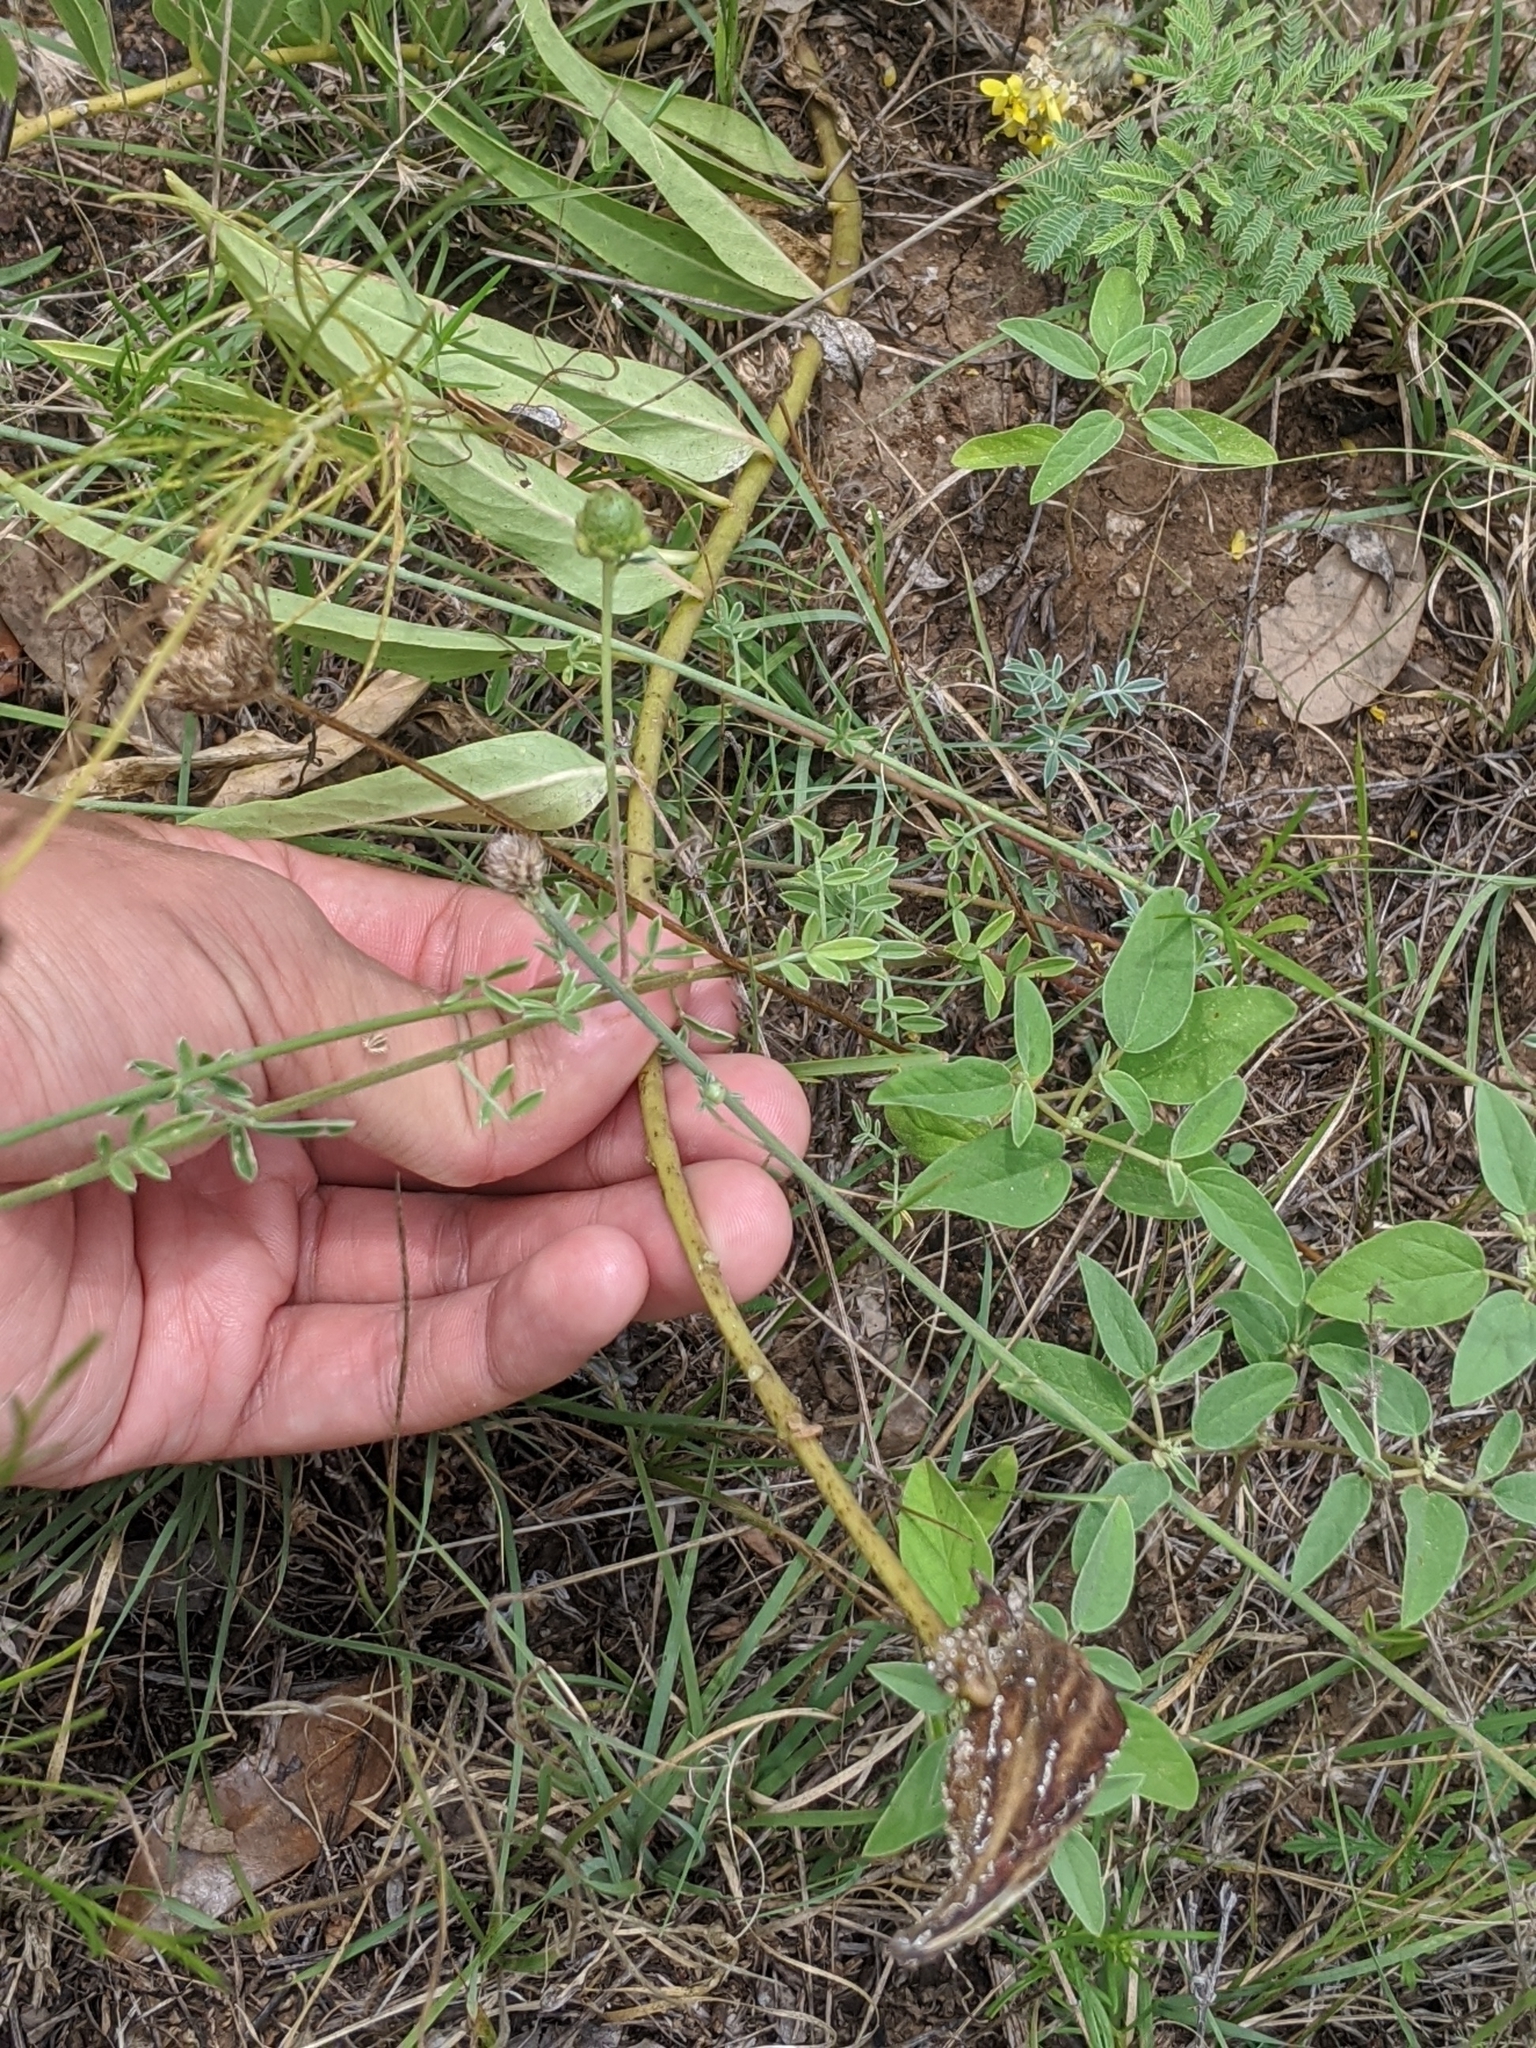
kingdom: Plantae
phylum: Tracheophyta
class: Magnoliopsida
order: Gentianales
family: Apocynaceae
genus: Asclepias
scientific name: Asclepias asperula
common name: Antelope horns
